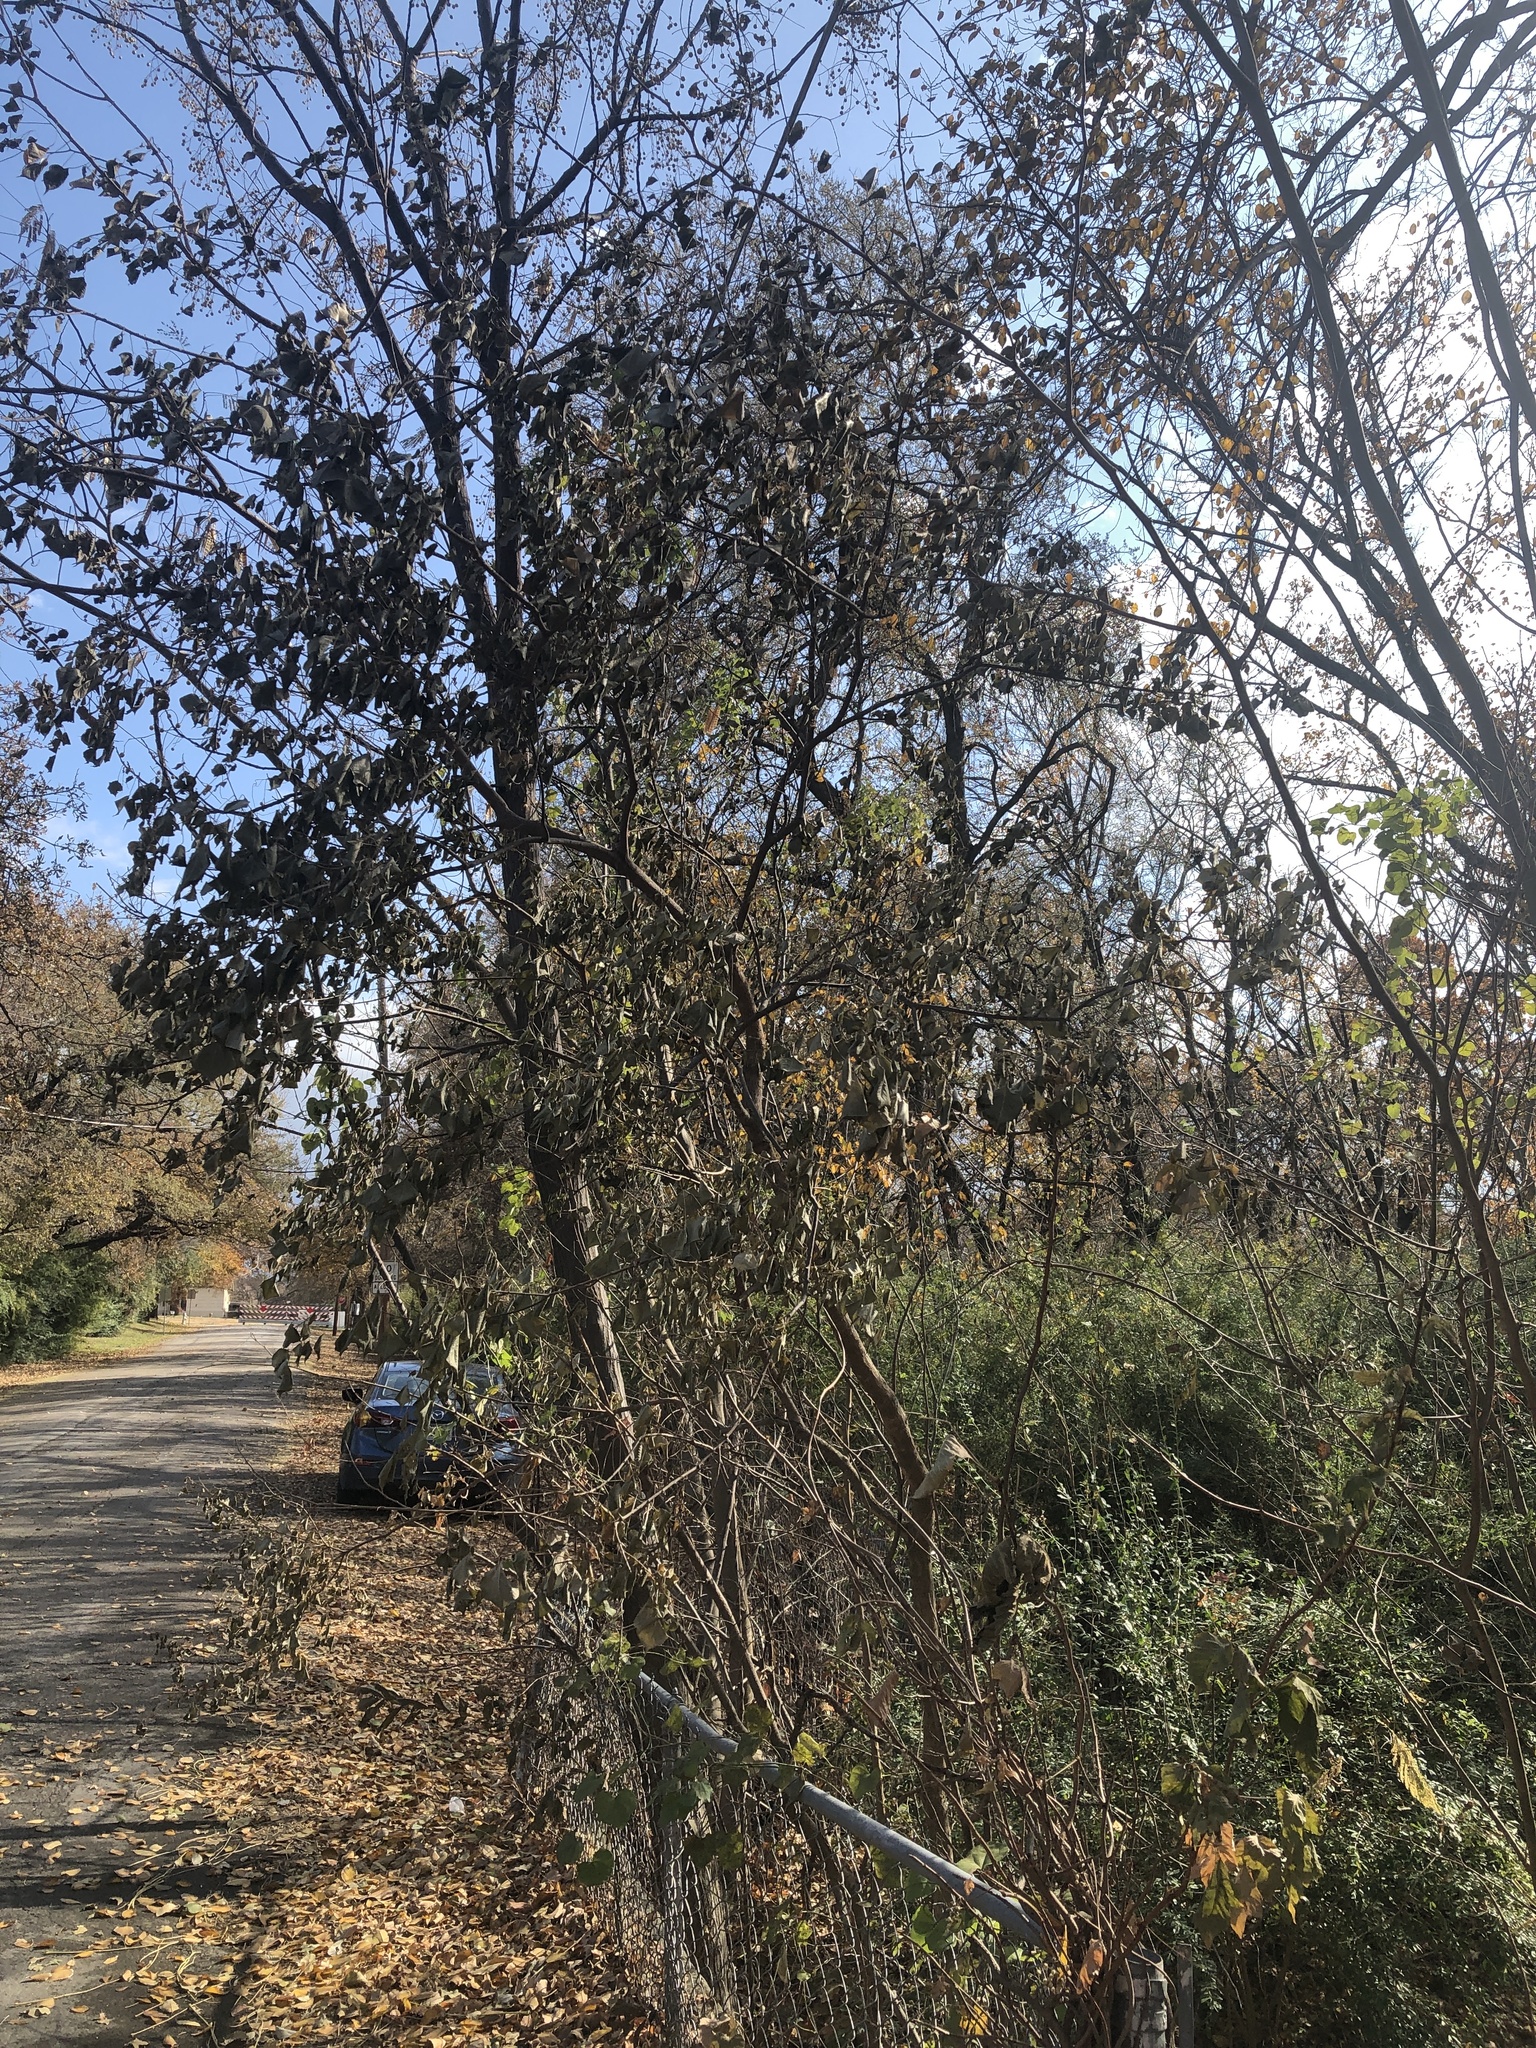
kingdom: Plantae
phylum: Tracheophyta
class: Magnoliopsida
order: Malpighiales
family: Euphorbiaceae
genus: Triadica
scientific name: Triadica sebifera
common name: Chinese tallow
